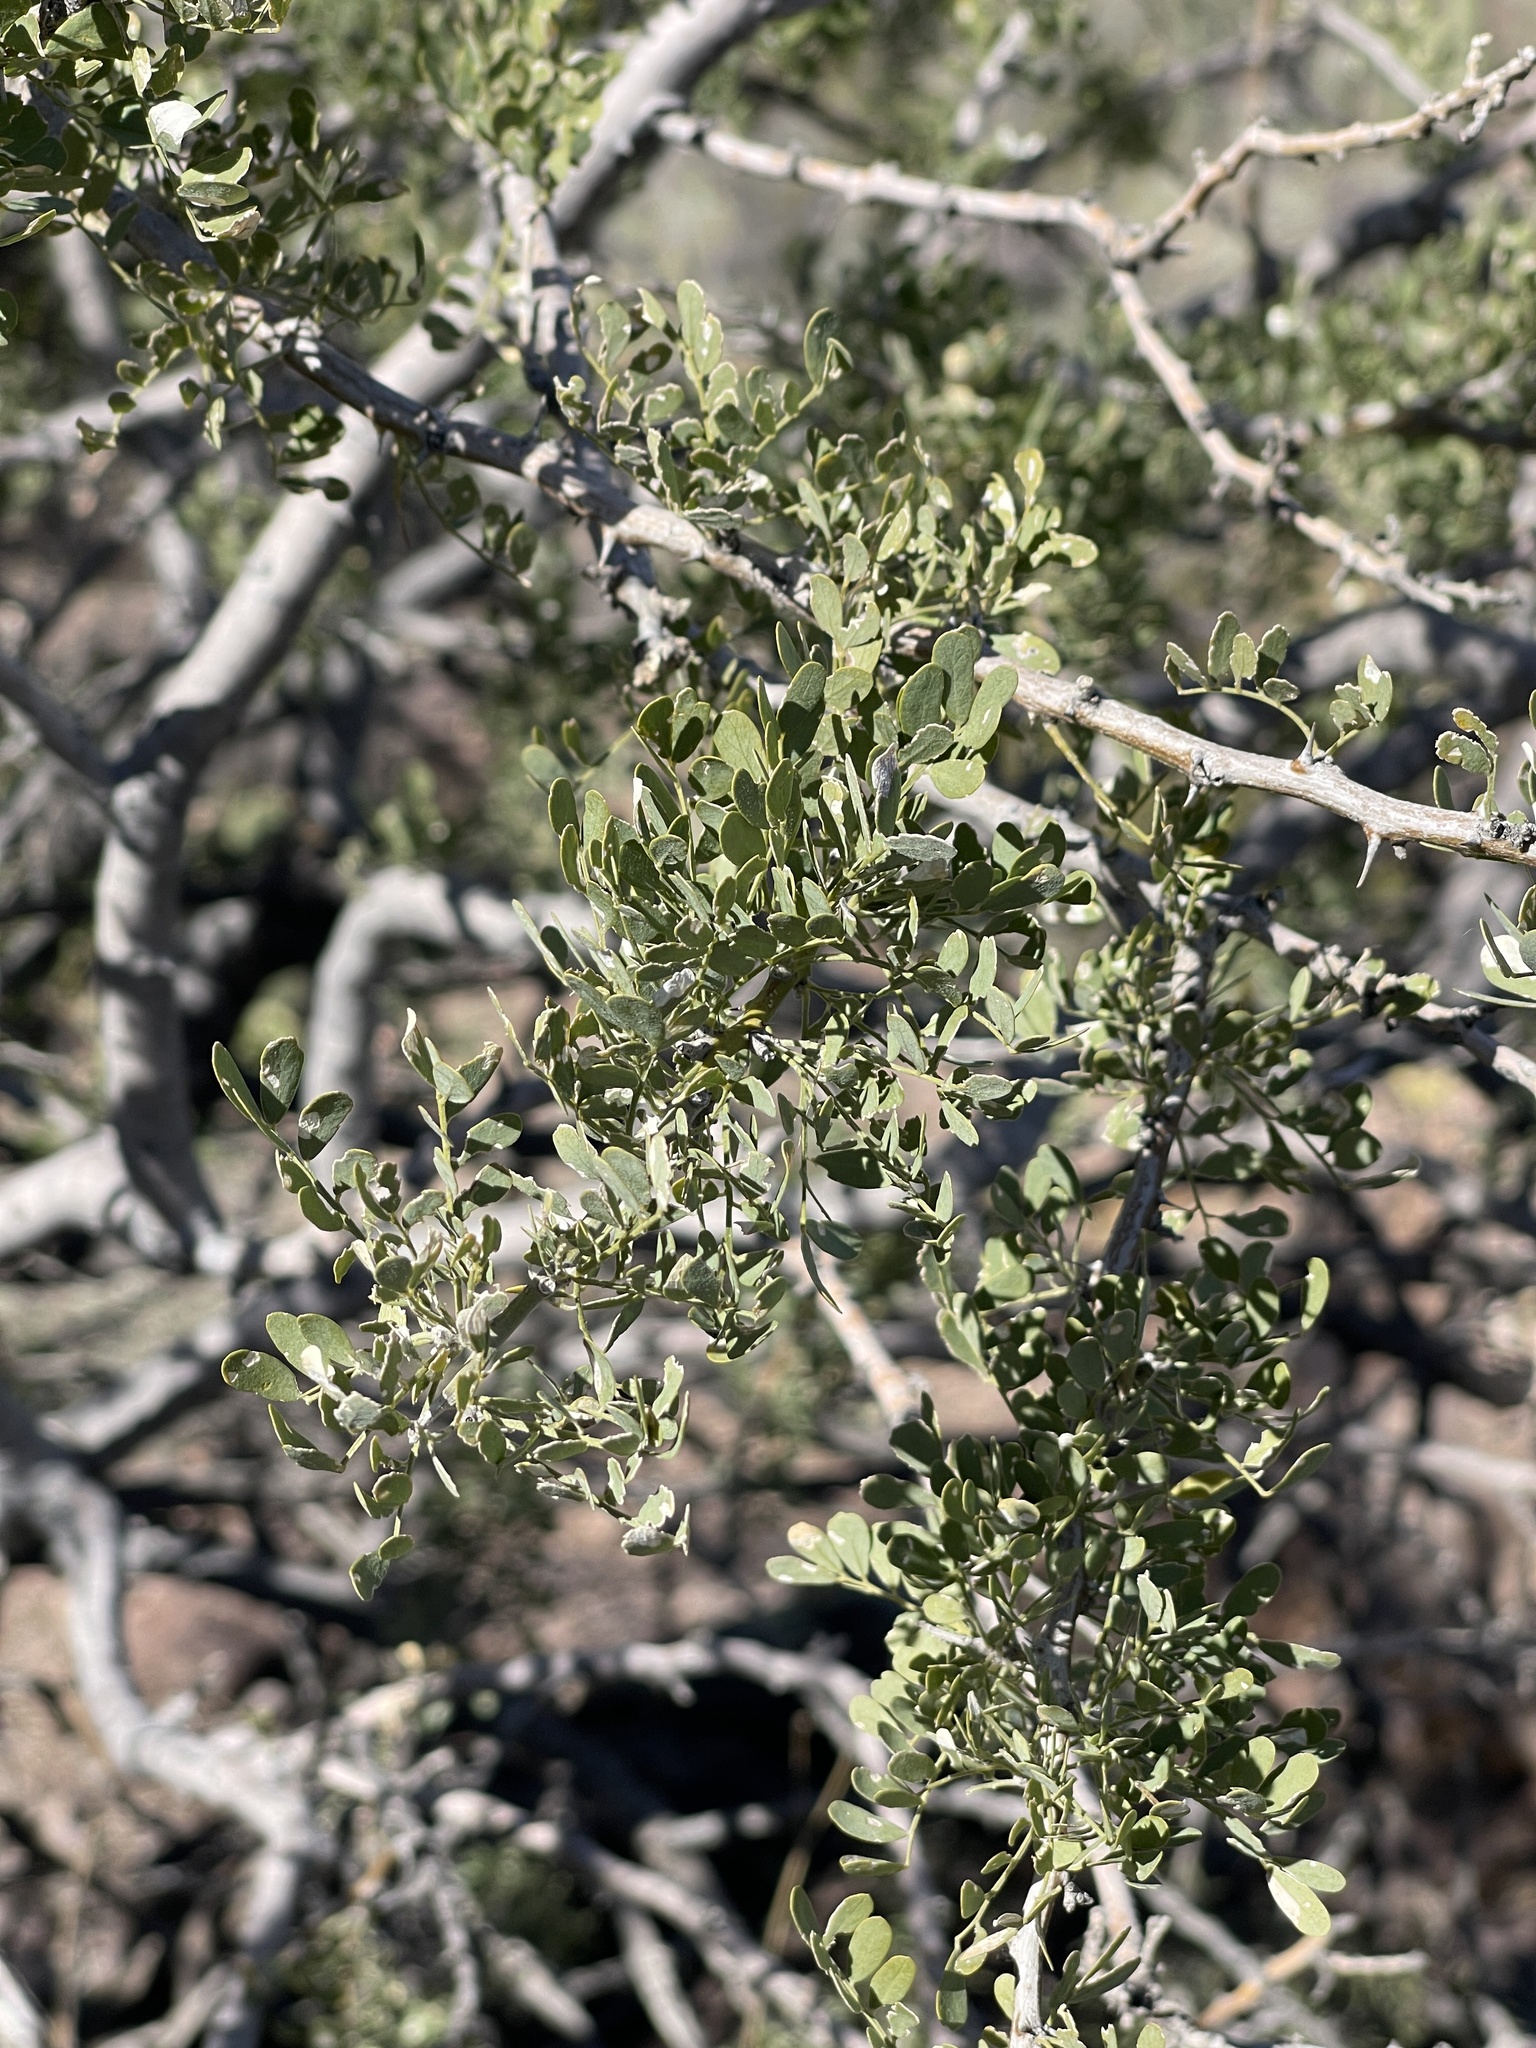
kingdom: Plantae
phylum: Tracheophyta
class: Magnoliopsida
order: Fabales
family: Fabaceae
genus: Olneya
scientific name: Olneya tesota
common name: Desert ironwood
